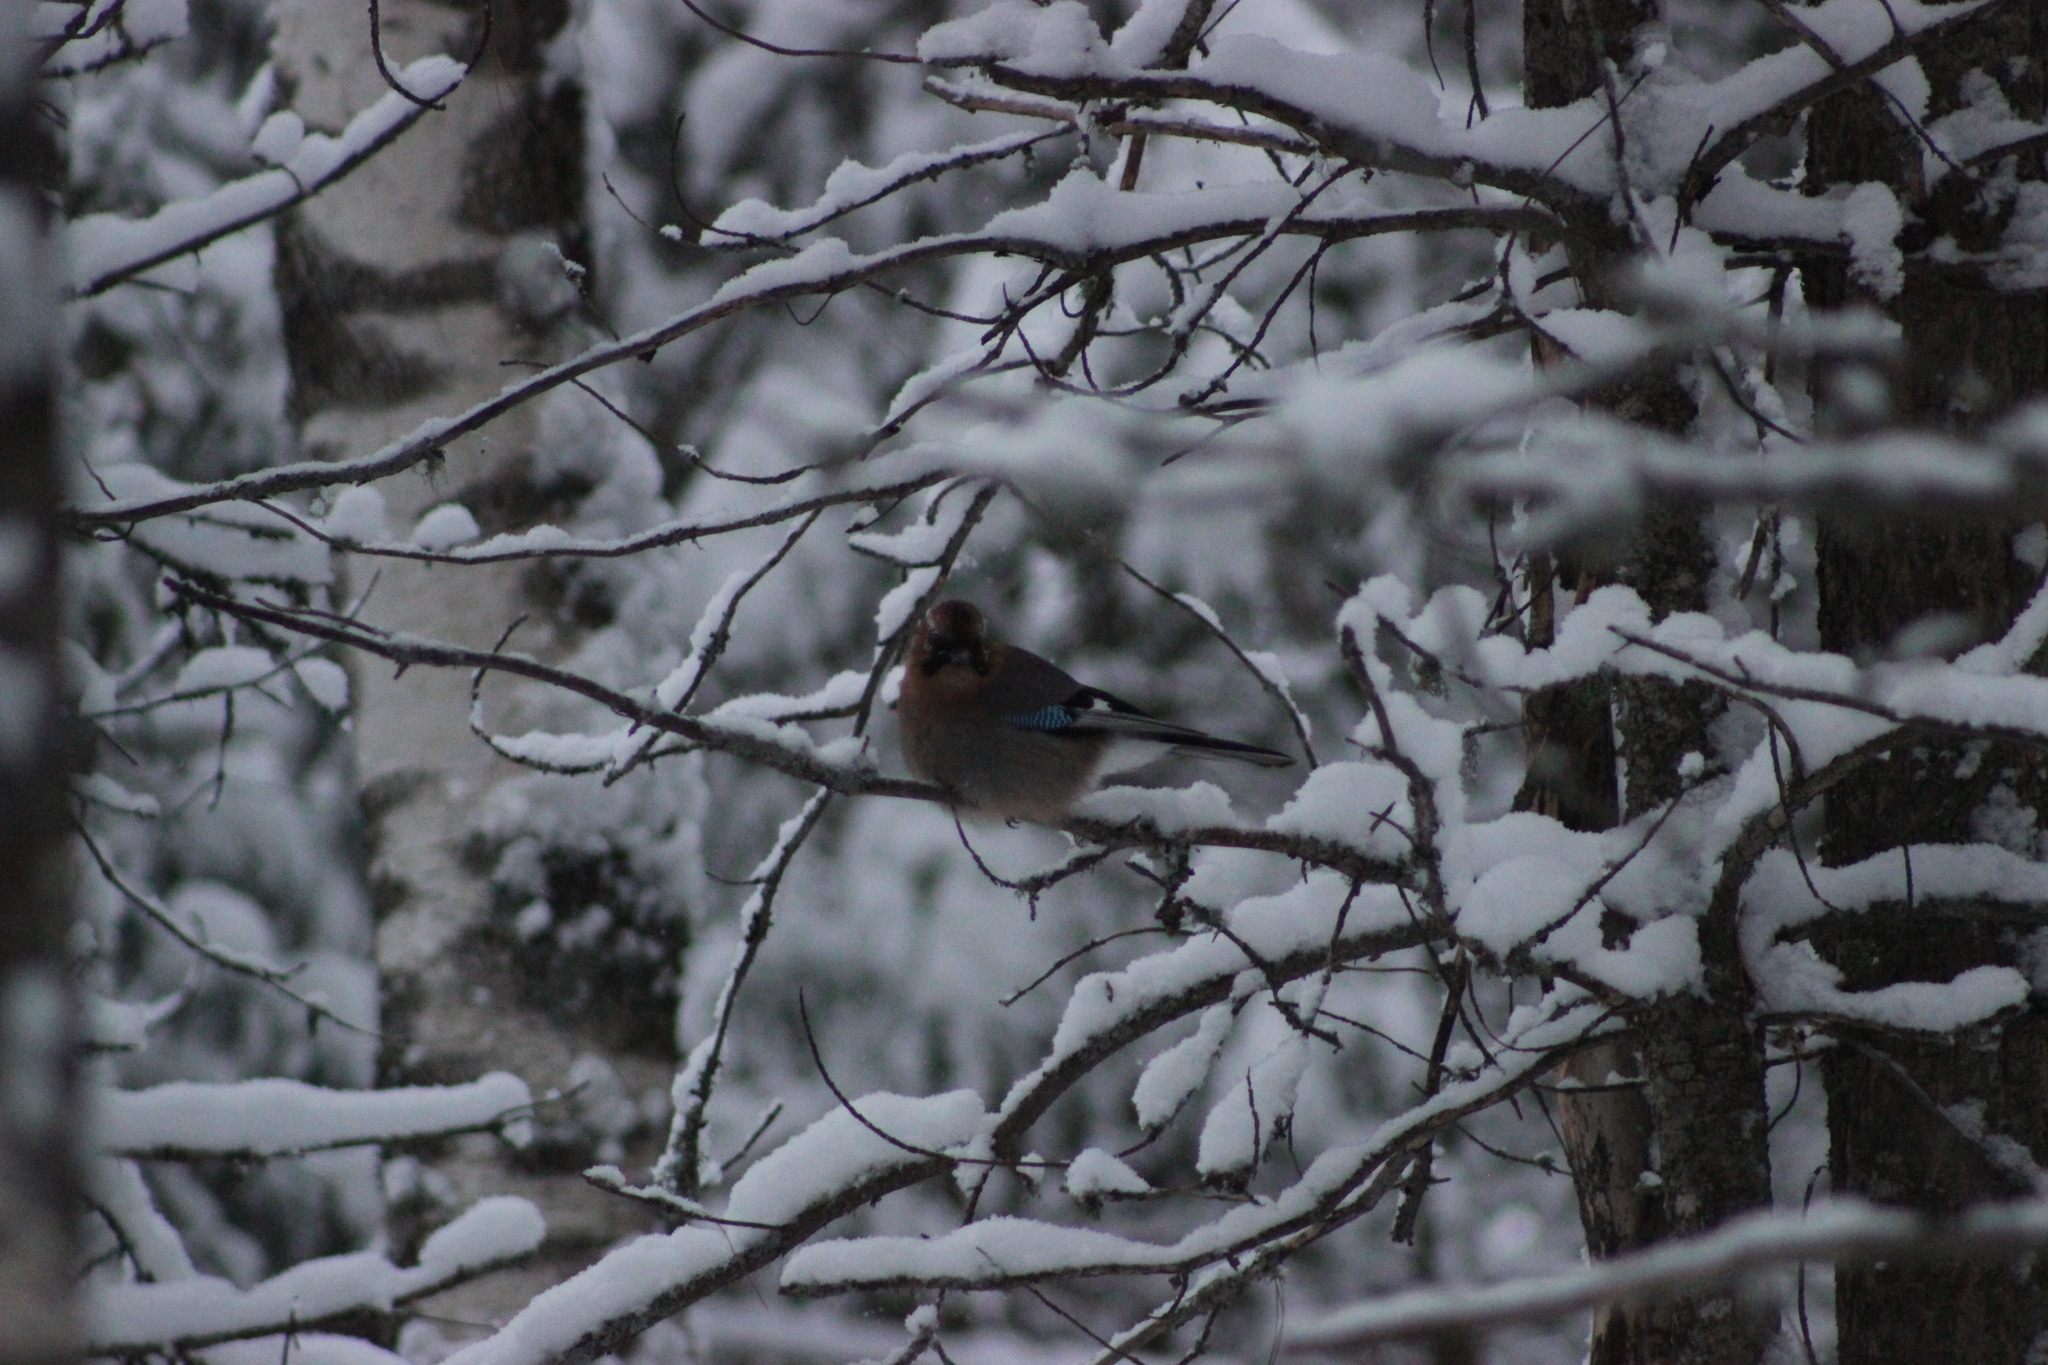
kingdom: Animalia
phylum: Chordata
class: Aves
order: Passeriformes
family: Corvidae
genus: Garrulus
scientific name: Garrulus glandarius
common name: Eurasian jay
